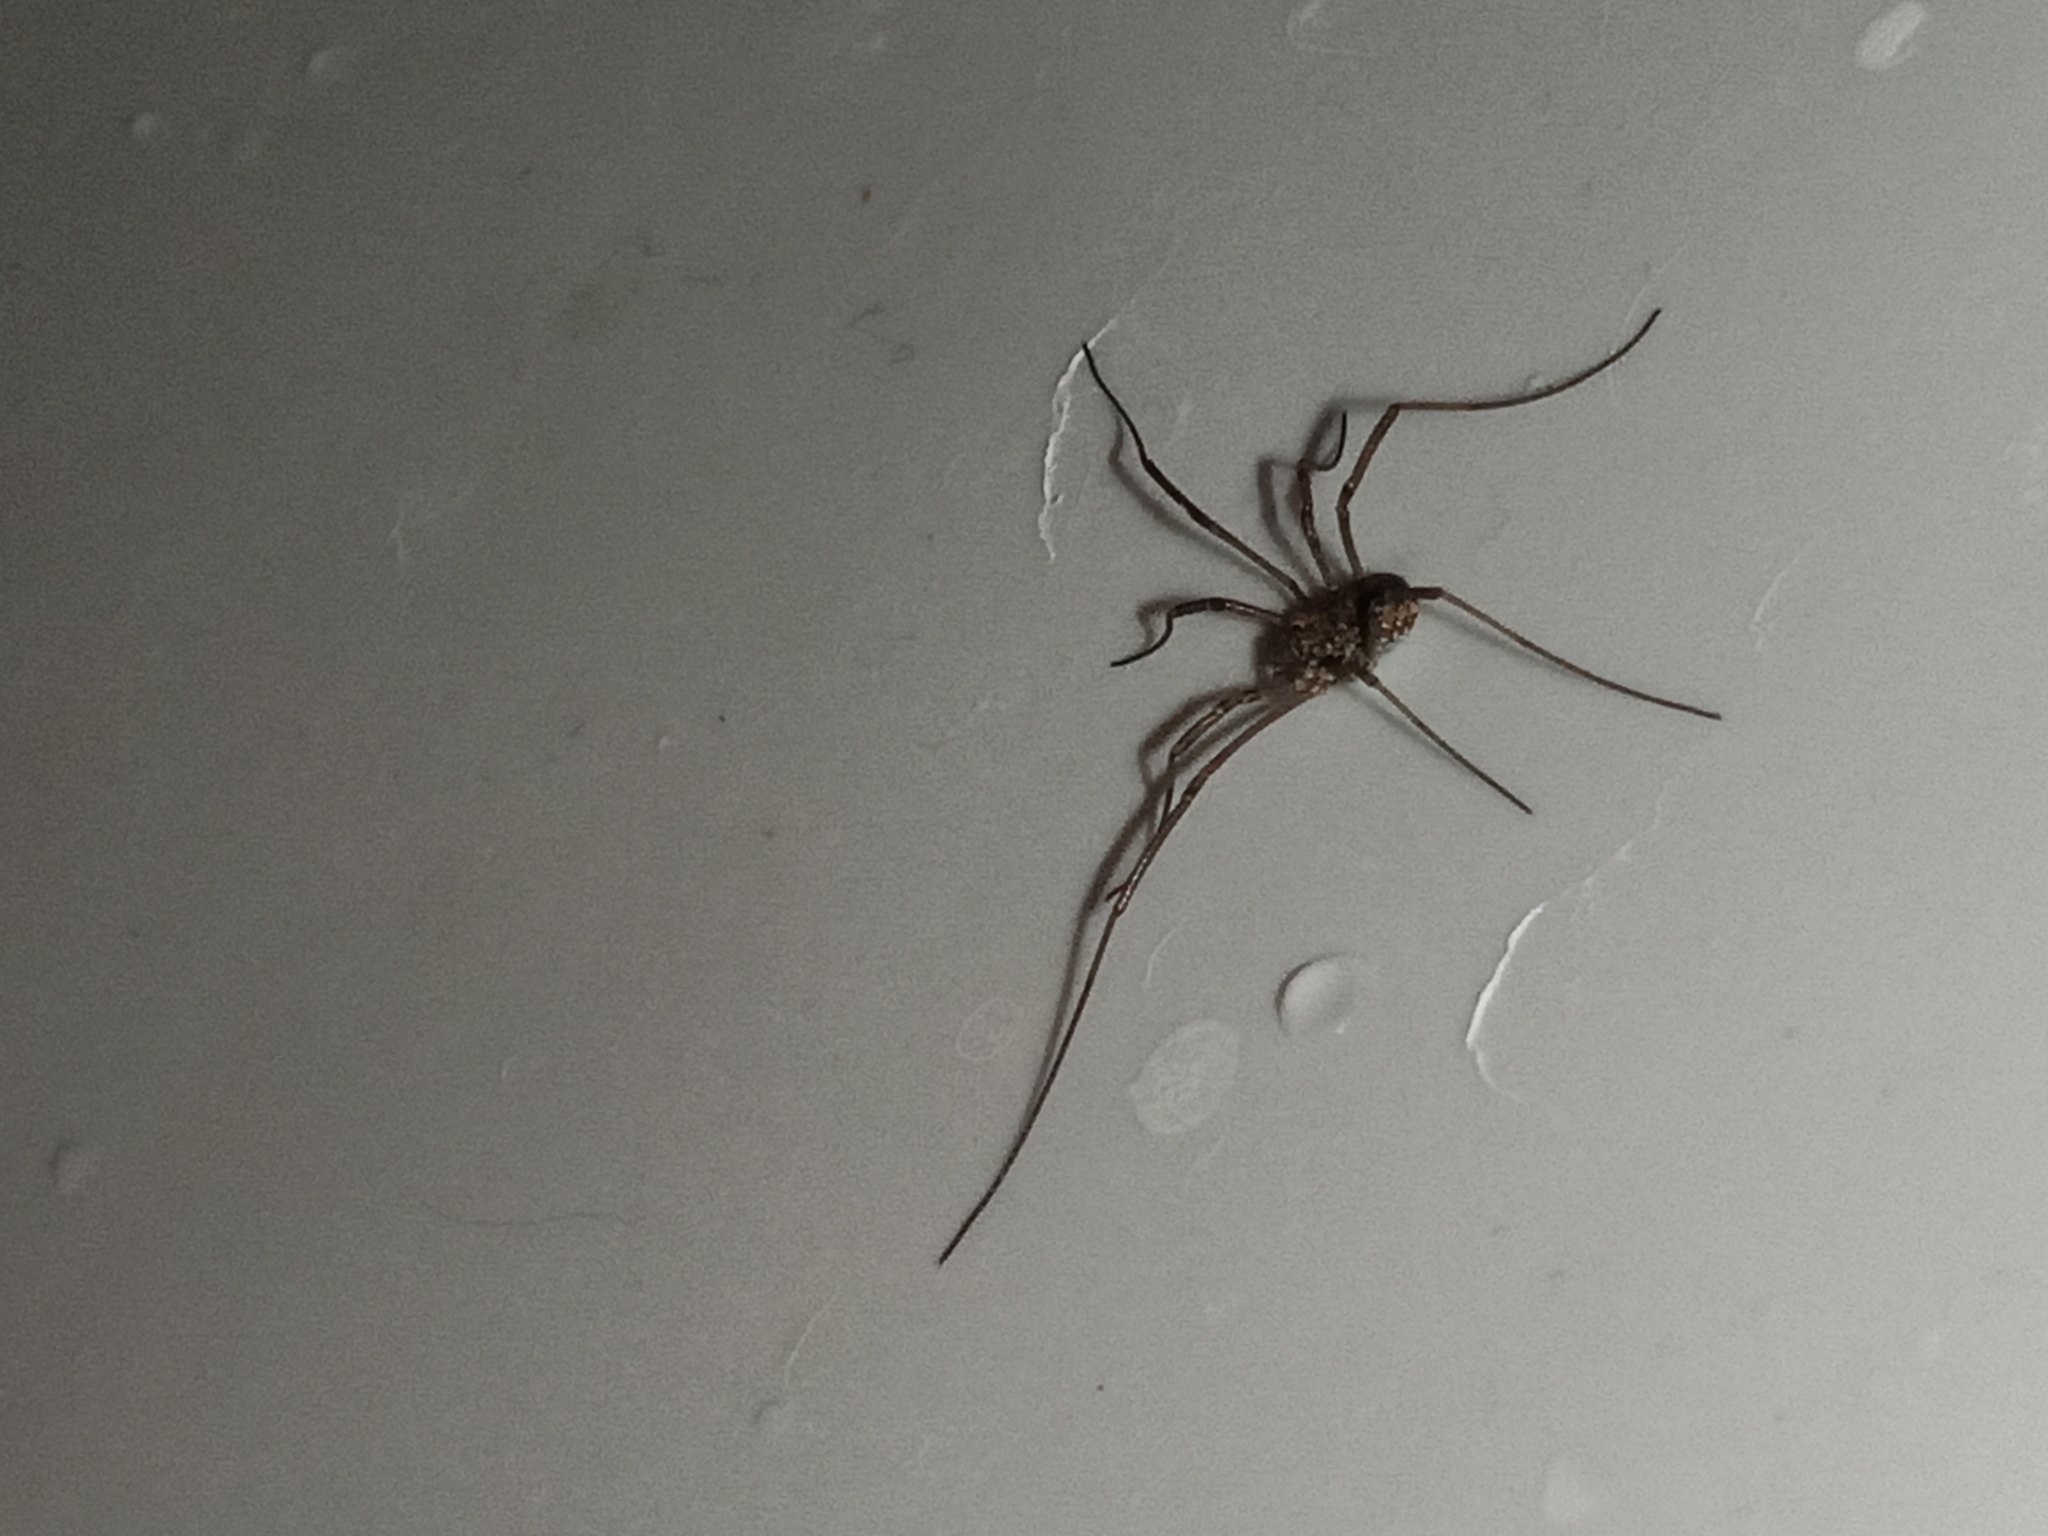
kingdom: Animalia
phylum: Arthropoda
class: Arachnida
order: Opiliones
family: Phalangiidae
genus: Phalangium
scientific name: Phalangium opilio
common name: Daddy longleg
